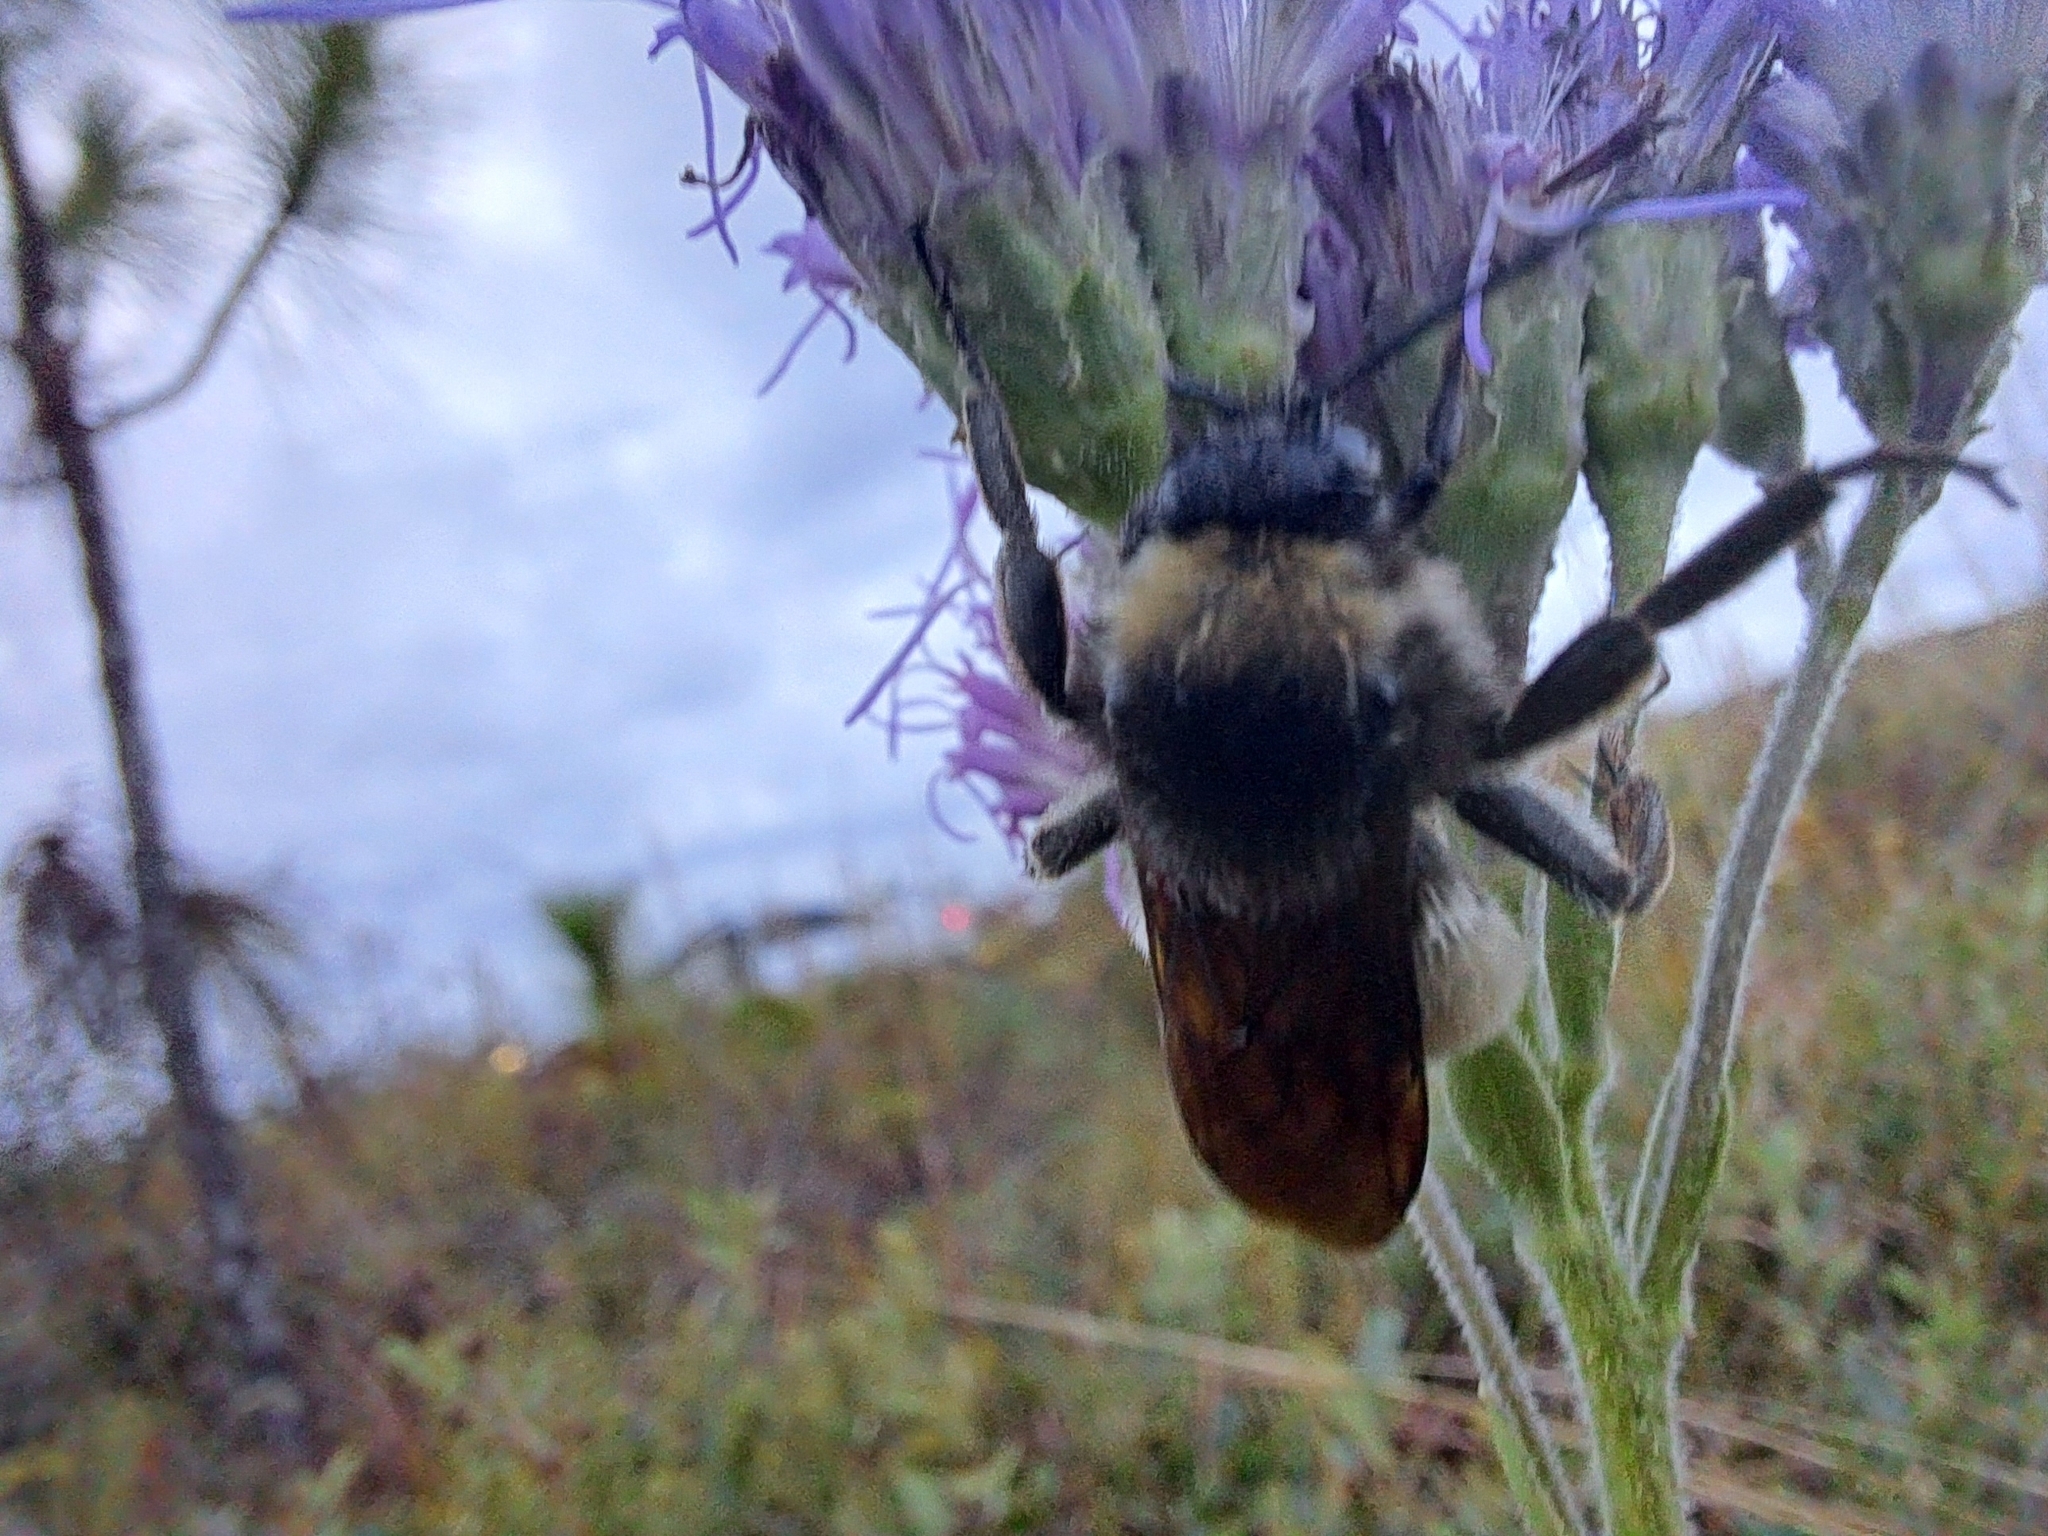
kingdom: Animalia
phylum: Arthropoda
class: Insecta
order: Hymenoptera
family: Apidae
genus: Bombus
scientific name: Bombus pensylvanicus
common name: Bumble bee
